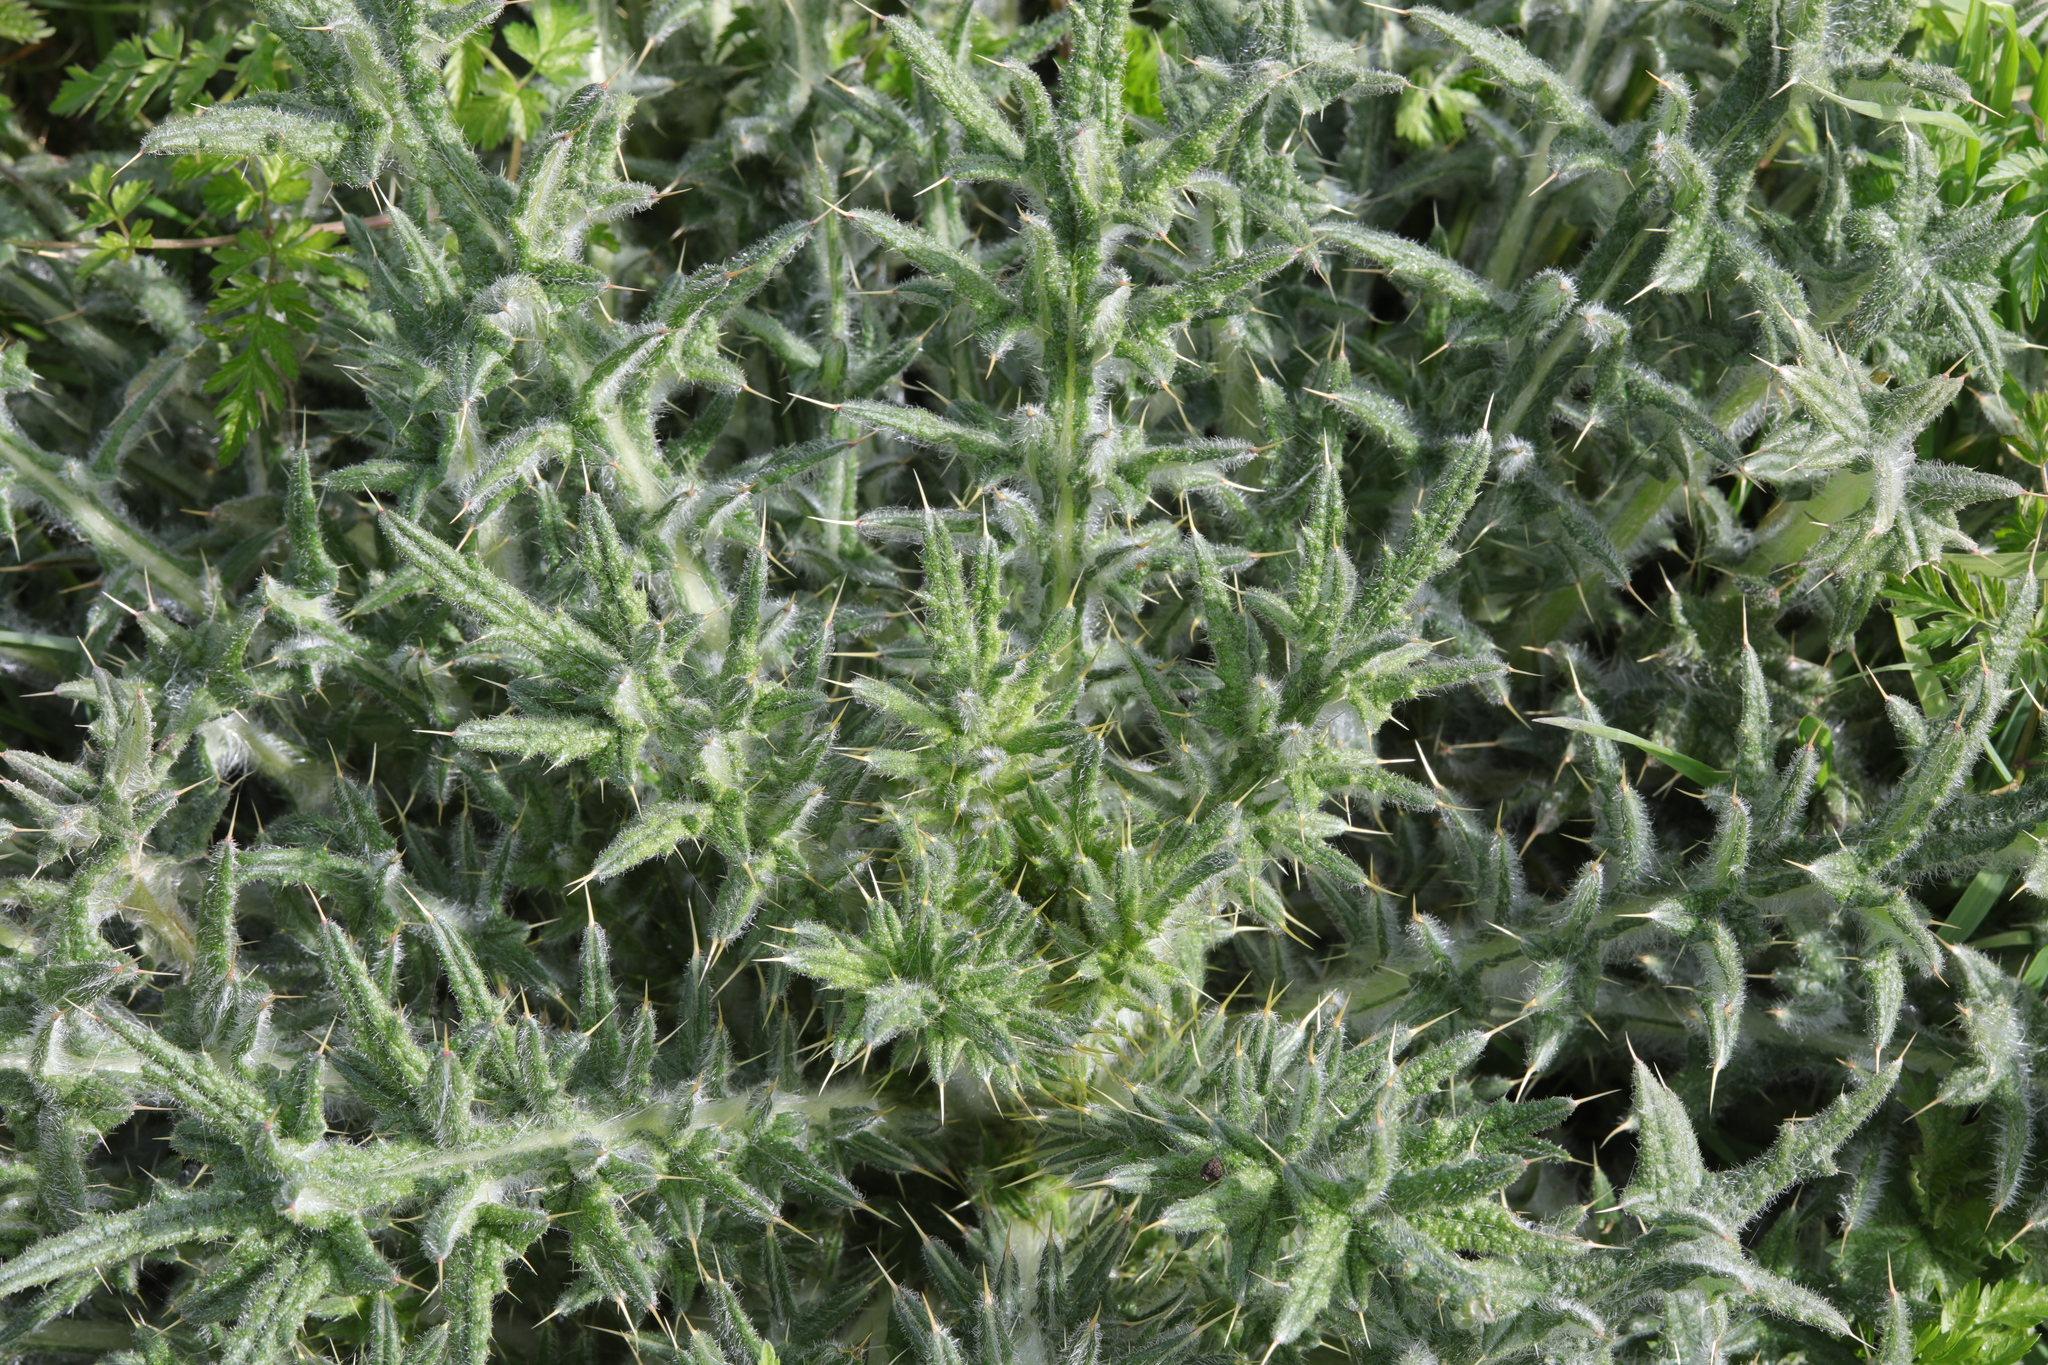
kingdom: Plantae
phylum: Tracheophyta
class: Magnoliopsida
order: Asterales
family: Asteraceae
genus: Cirsium
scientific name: Cirsium vulgare
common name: Bull thistle
